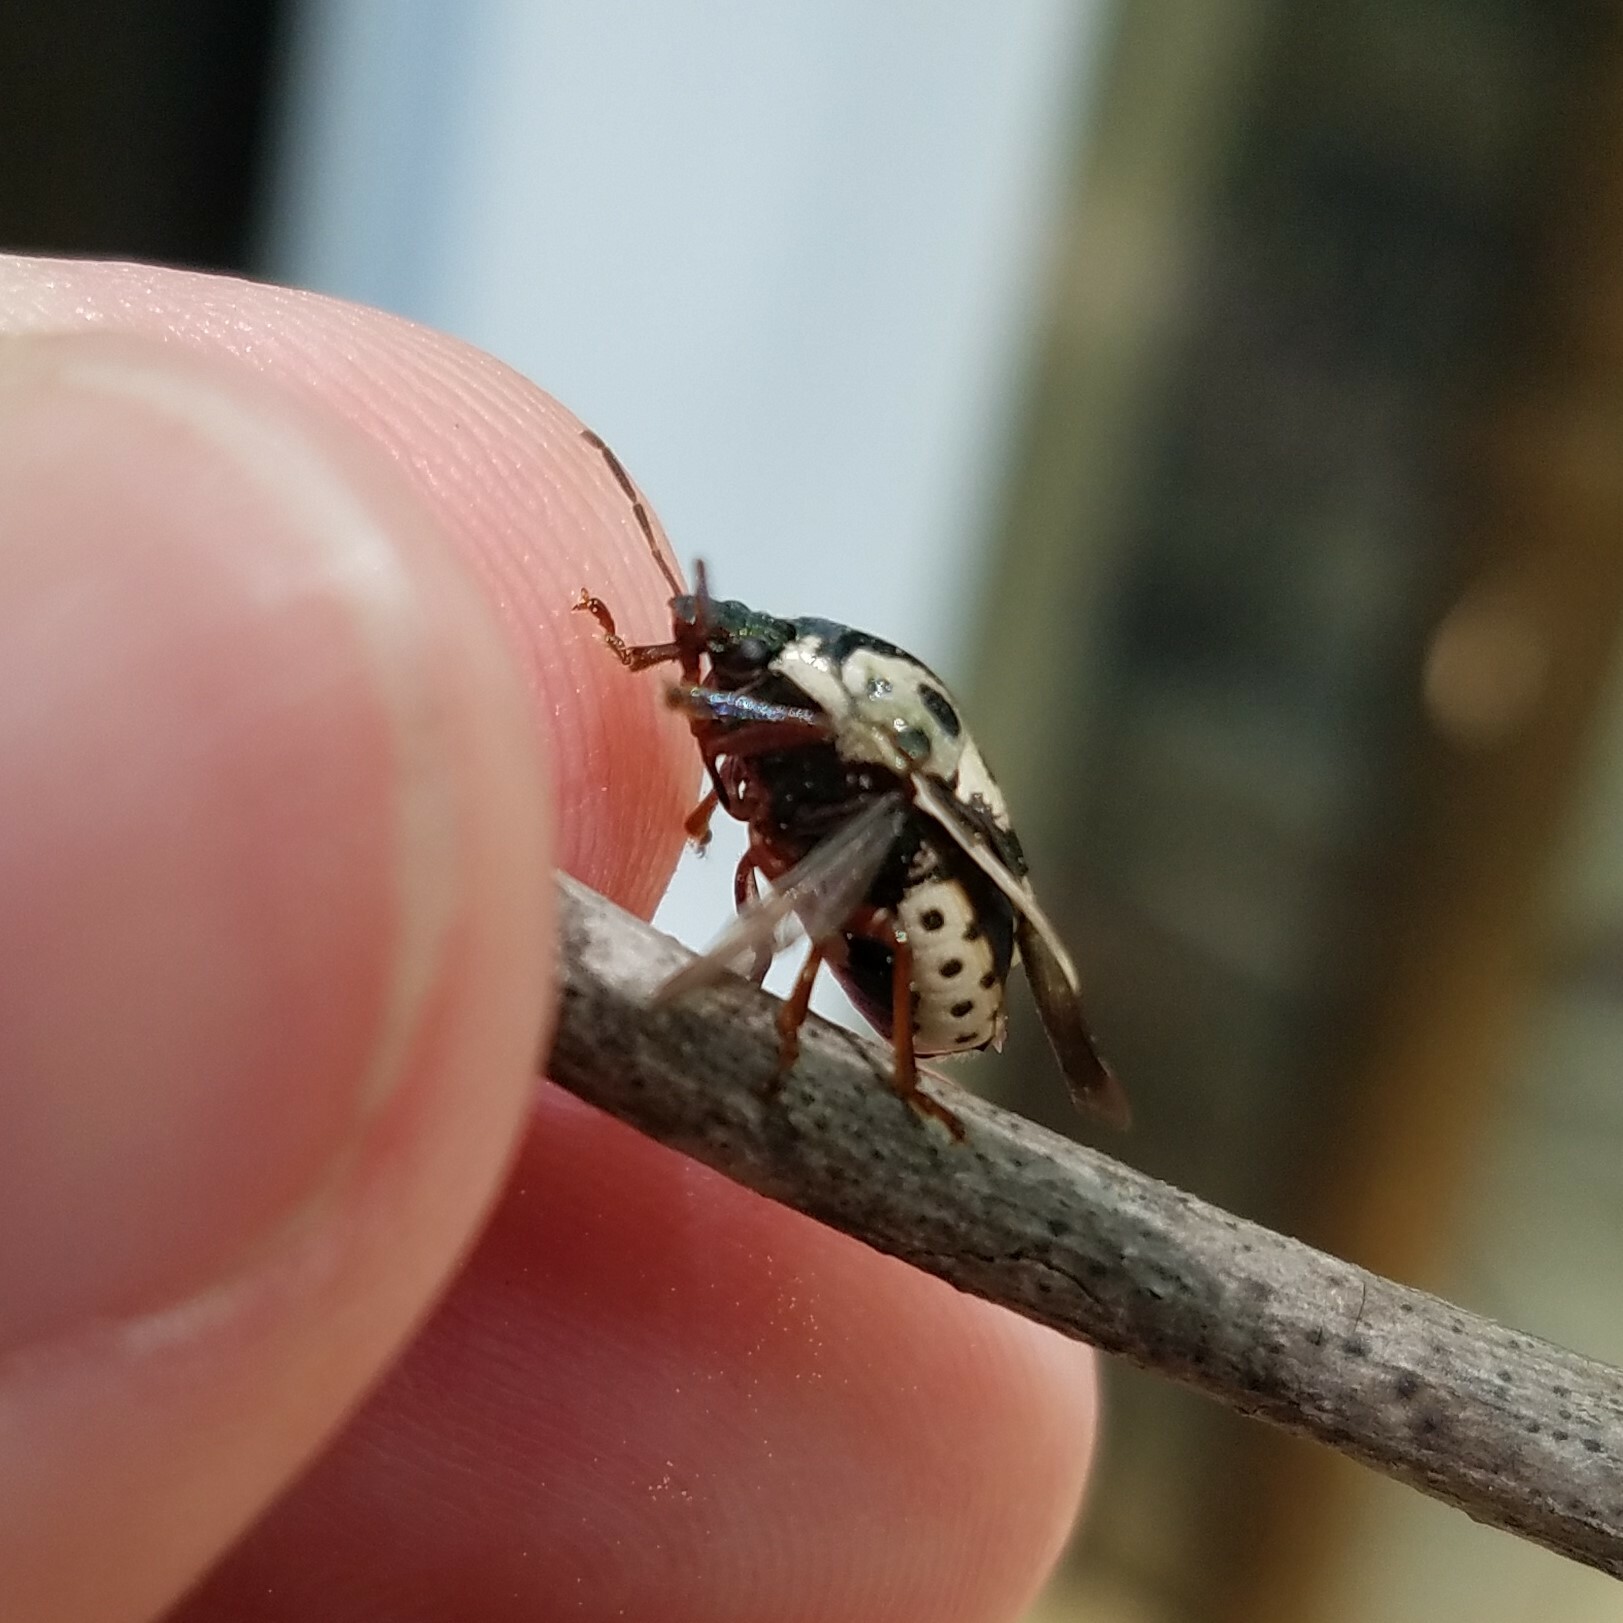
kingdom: Animalia
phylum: Arthropoda
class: Insecta
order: Hemiptera
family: Pentatomidae
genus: Stiretrus
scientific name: Stiretrus anchorago
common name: Anchor stink bug
